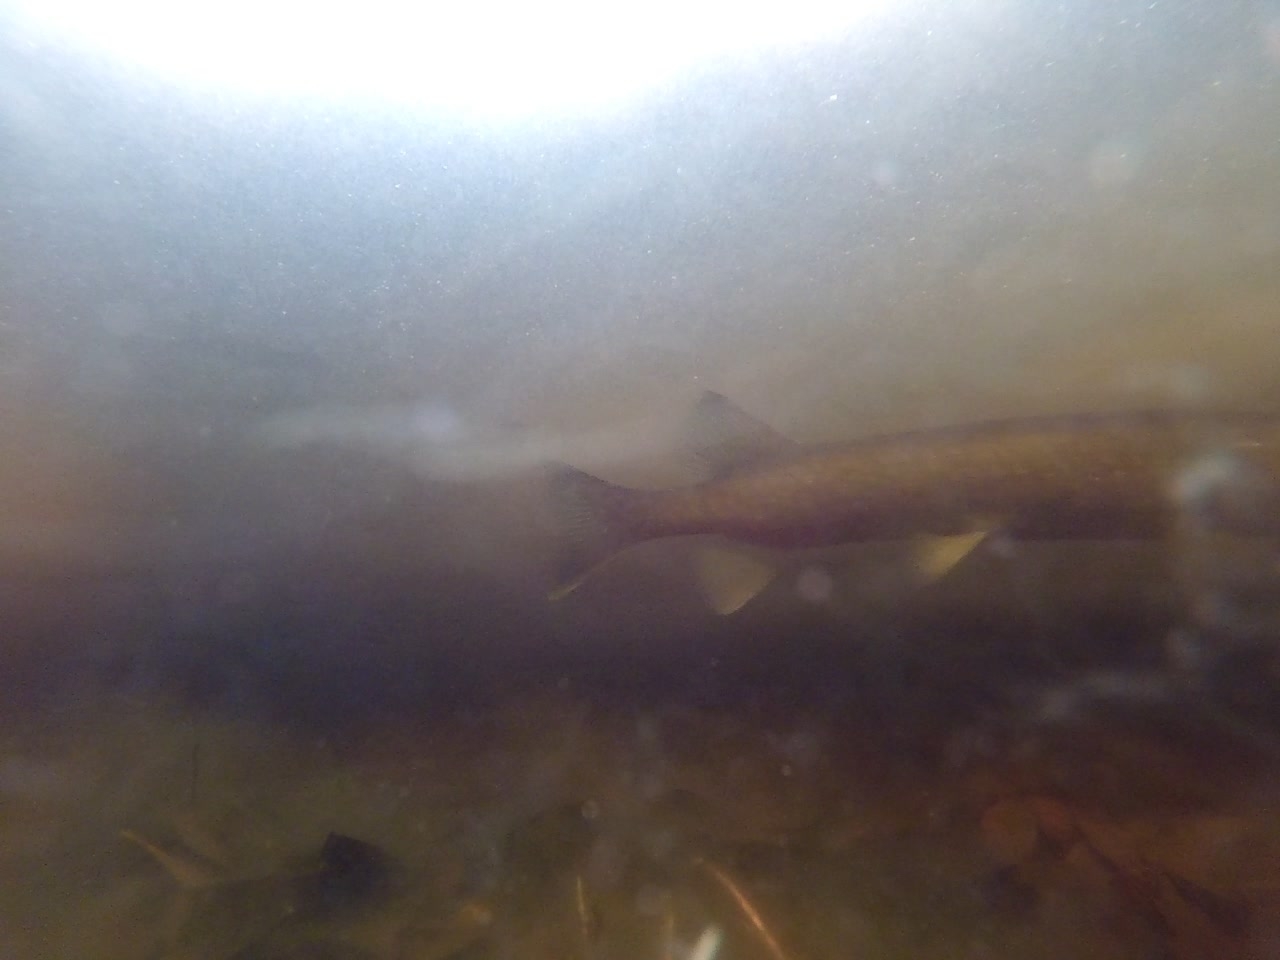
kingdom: Animalia
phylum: Chordata
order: Esociformes
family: Esocidae
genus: Esox
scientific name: Esox niger
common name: Chain pickerel
